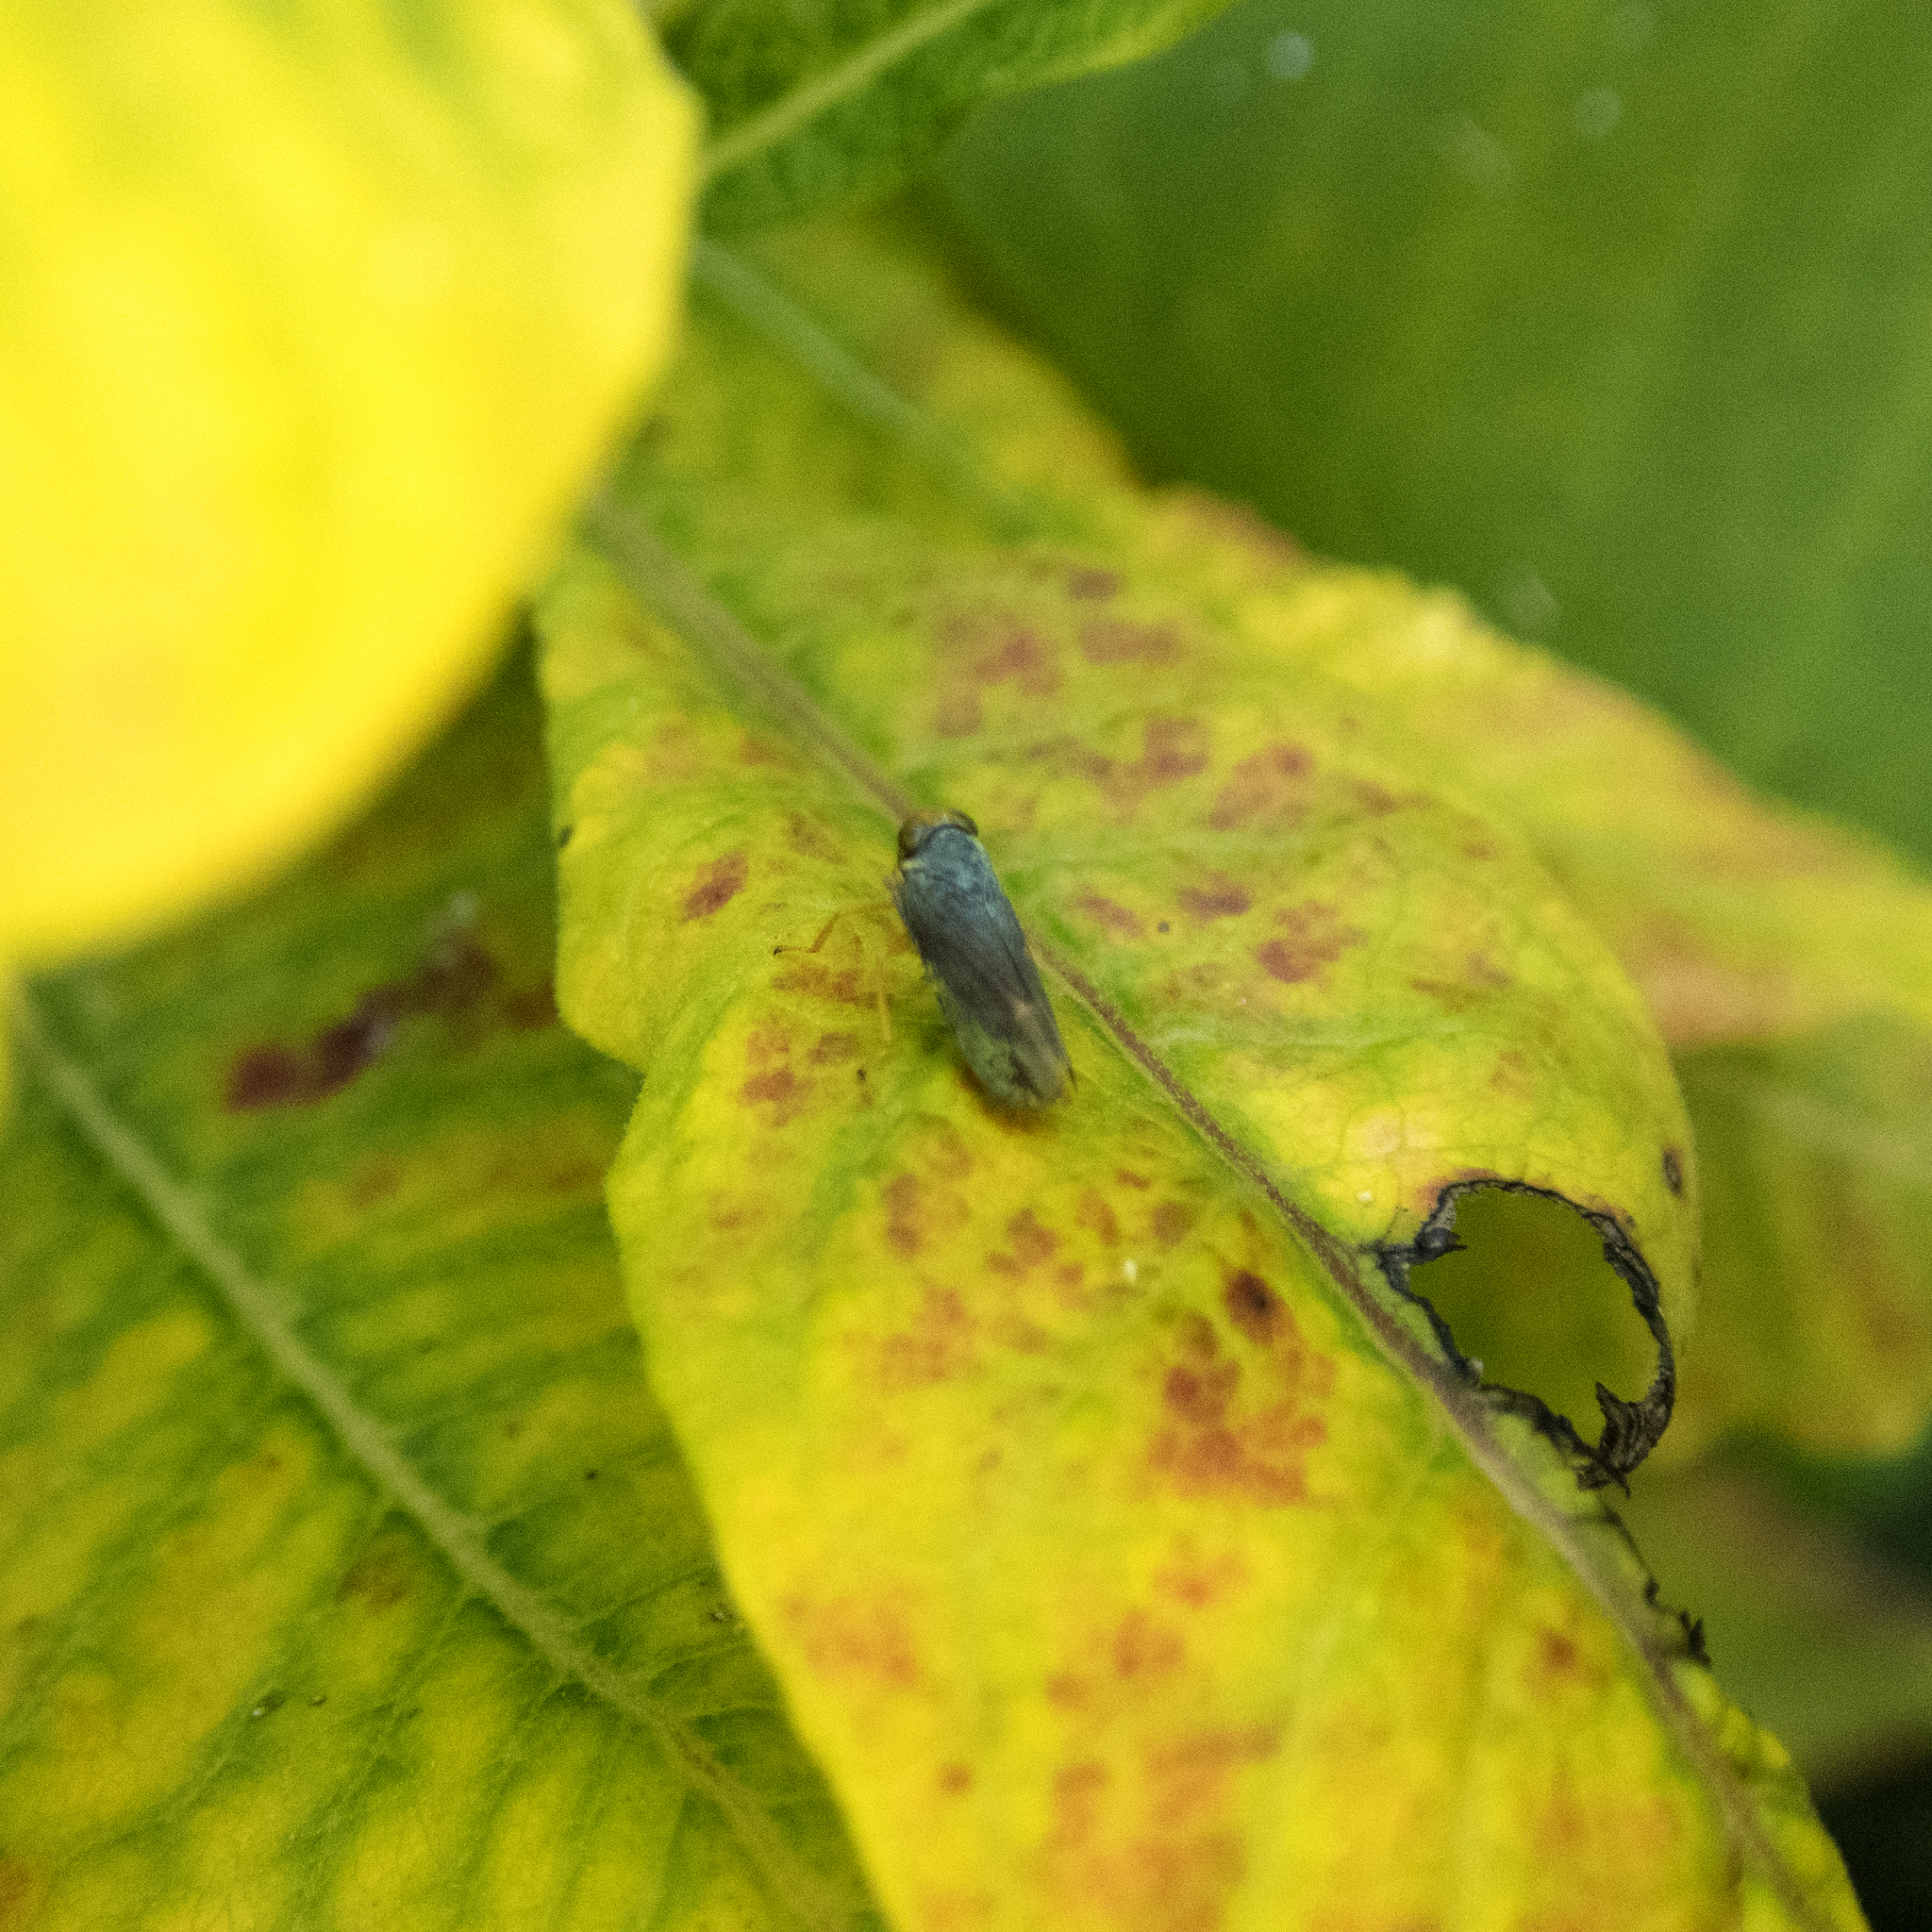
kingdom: Animalia
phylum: Arthropoda
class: Insecta
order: Hemiptera
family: Cicadellidae
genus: Jikradia
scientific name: Jikradia olitoria
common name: Coppery leafhopper
